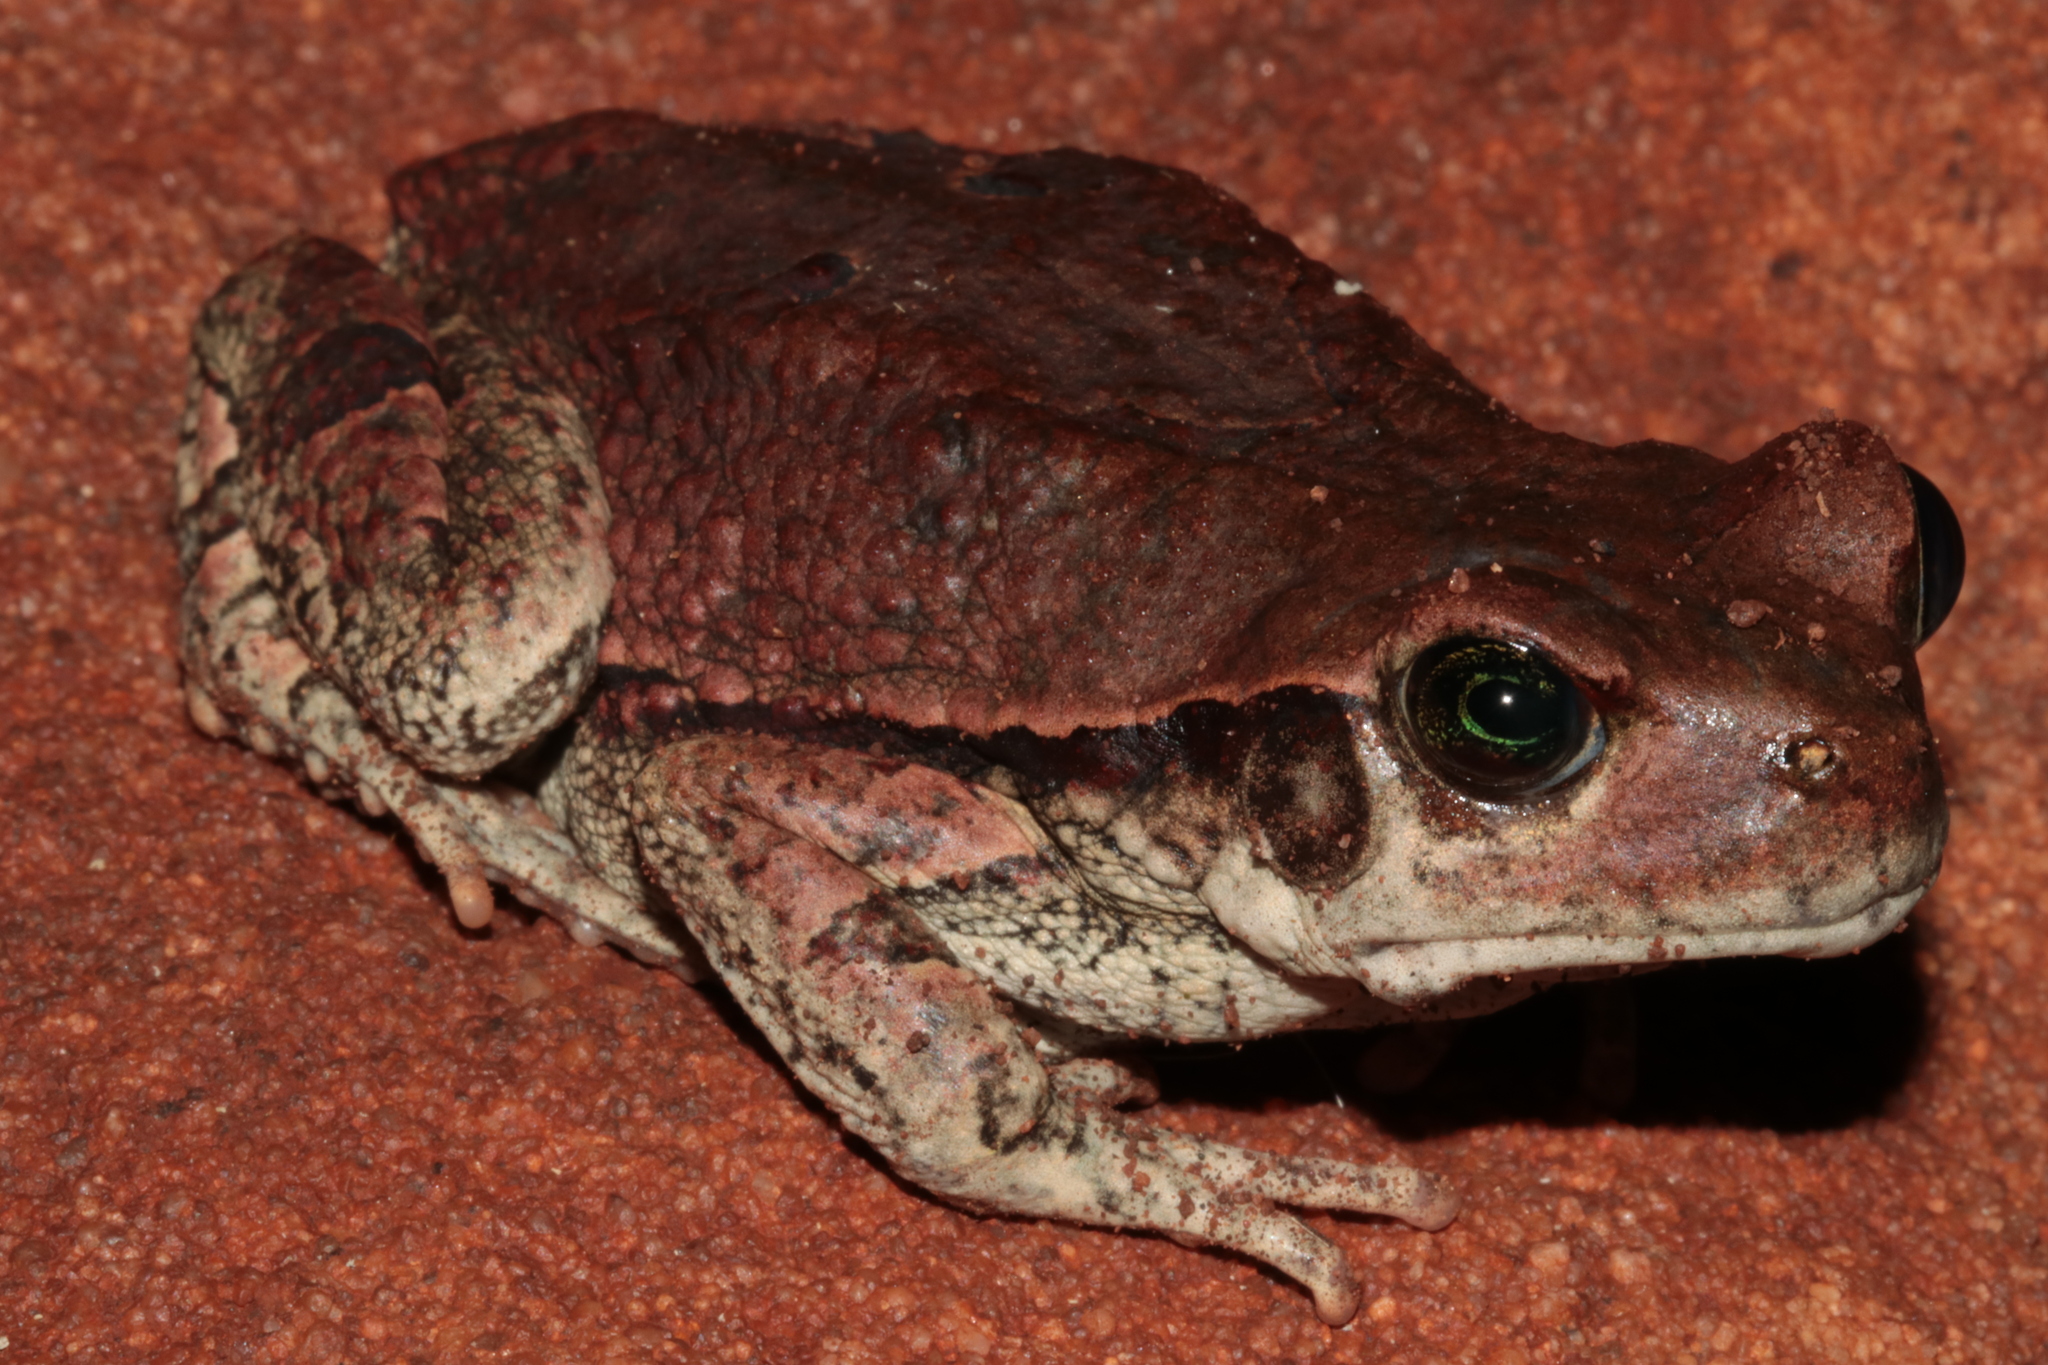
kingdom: Animalia
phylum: Chordata
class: Amphibia
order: Anura
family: Bufonidae
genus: Schismaderma
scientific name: Schismaderma carens
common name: African split-skin toad
